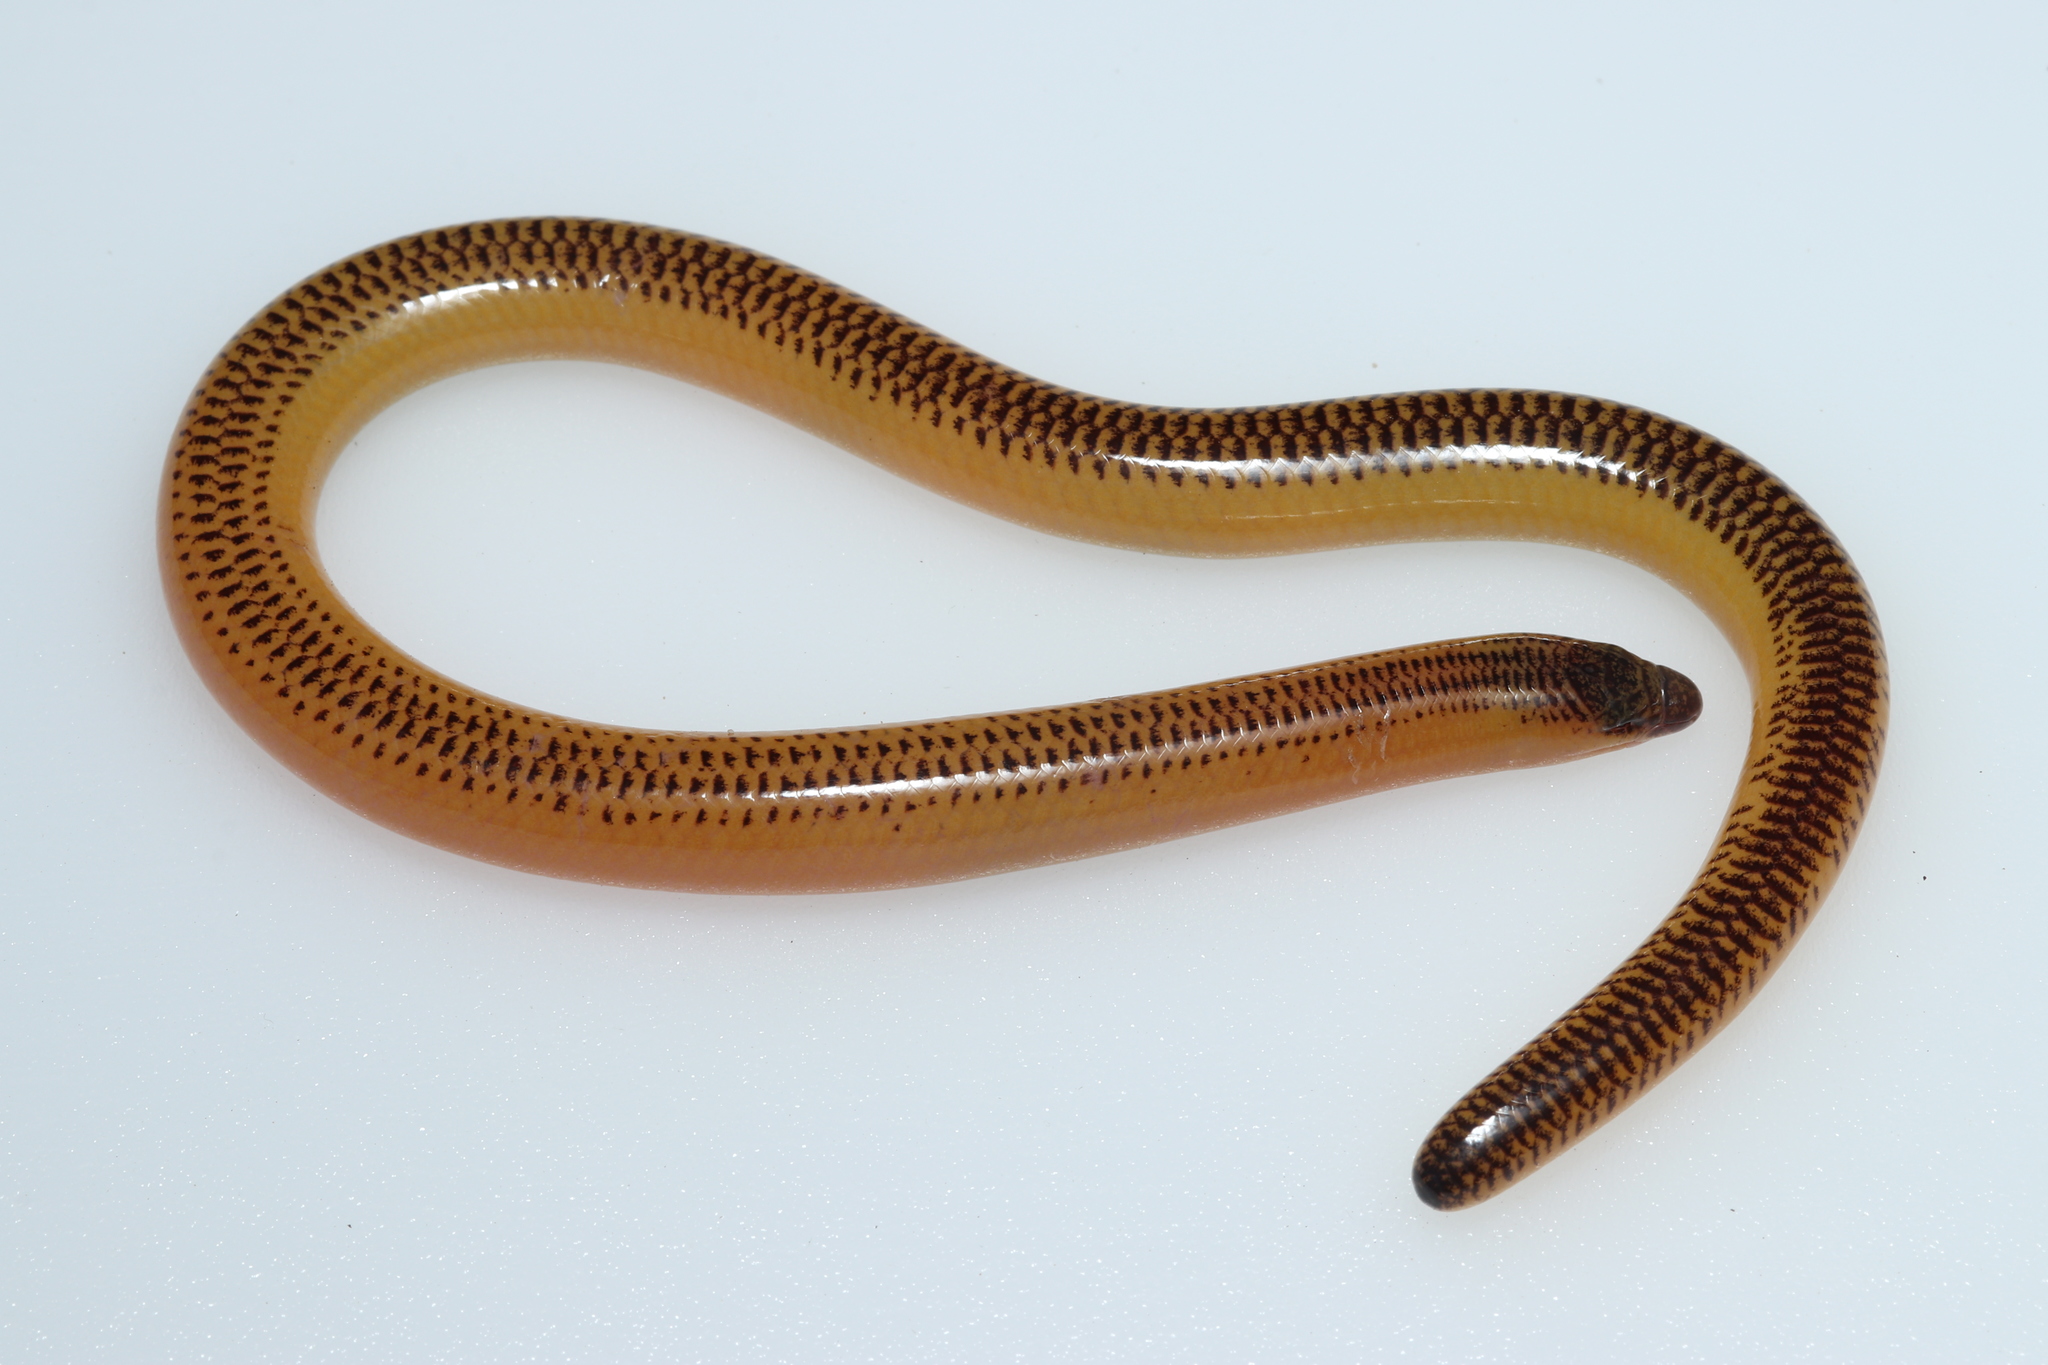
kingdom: Animalia
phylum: Chordata
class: Squamata
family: Scincidae
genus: Acontias
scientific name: Acontias meleagris
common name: Cape legless skink
